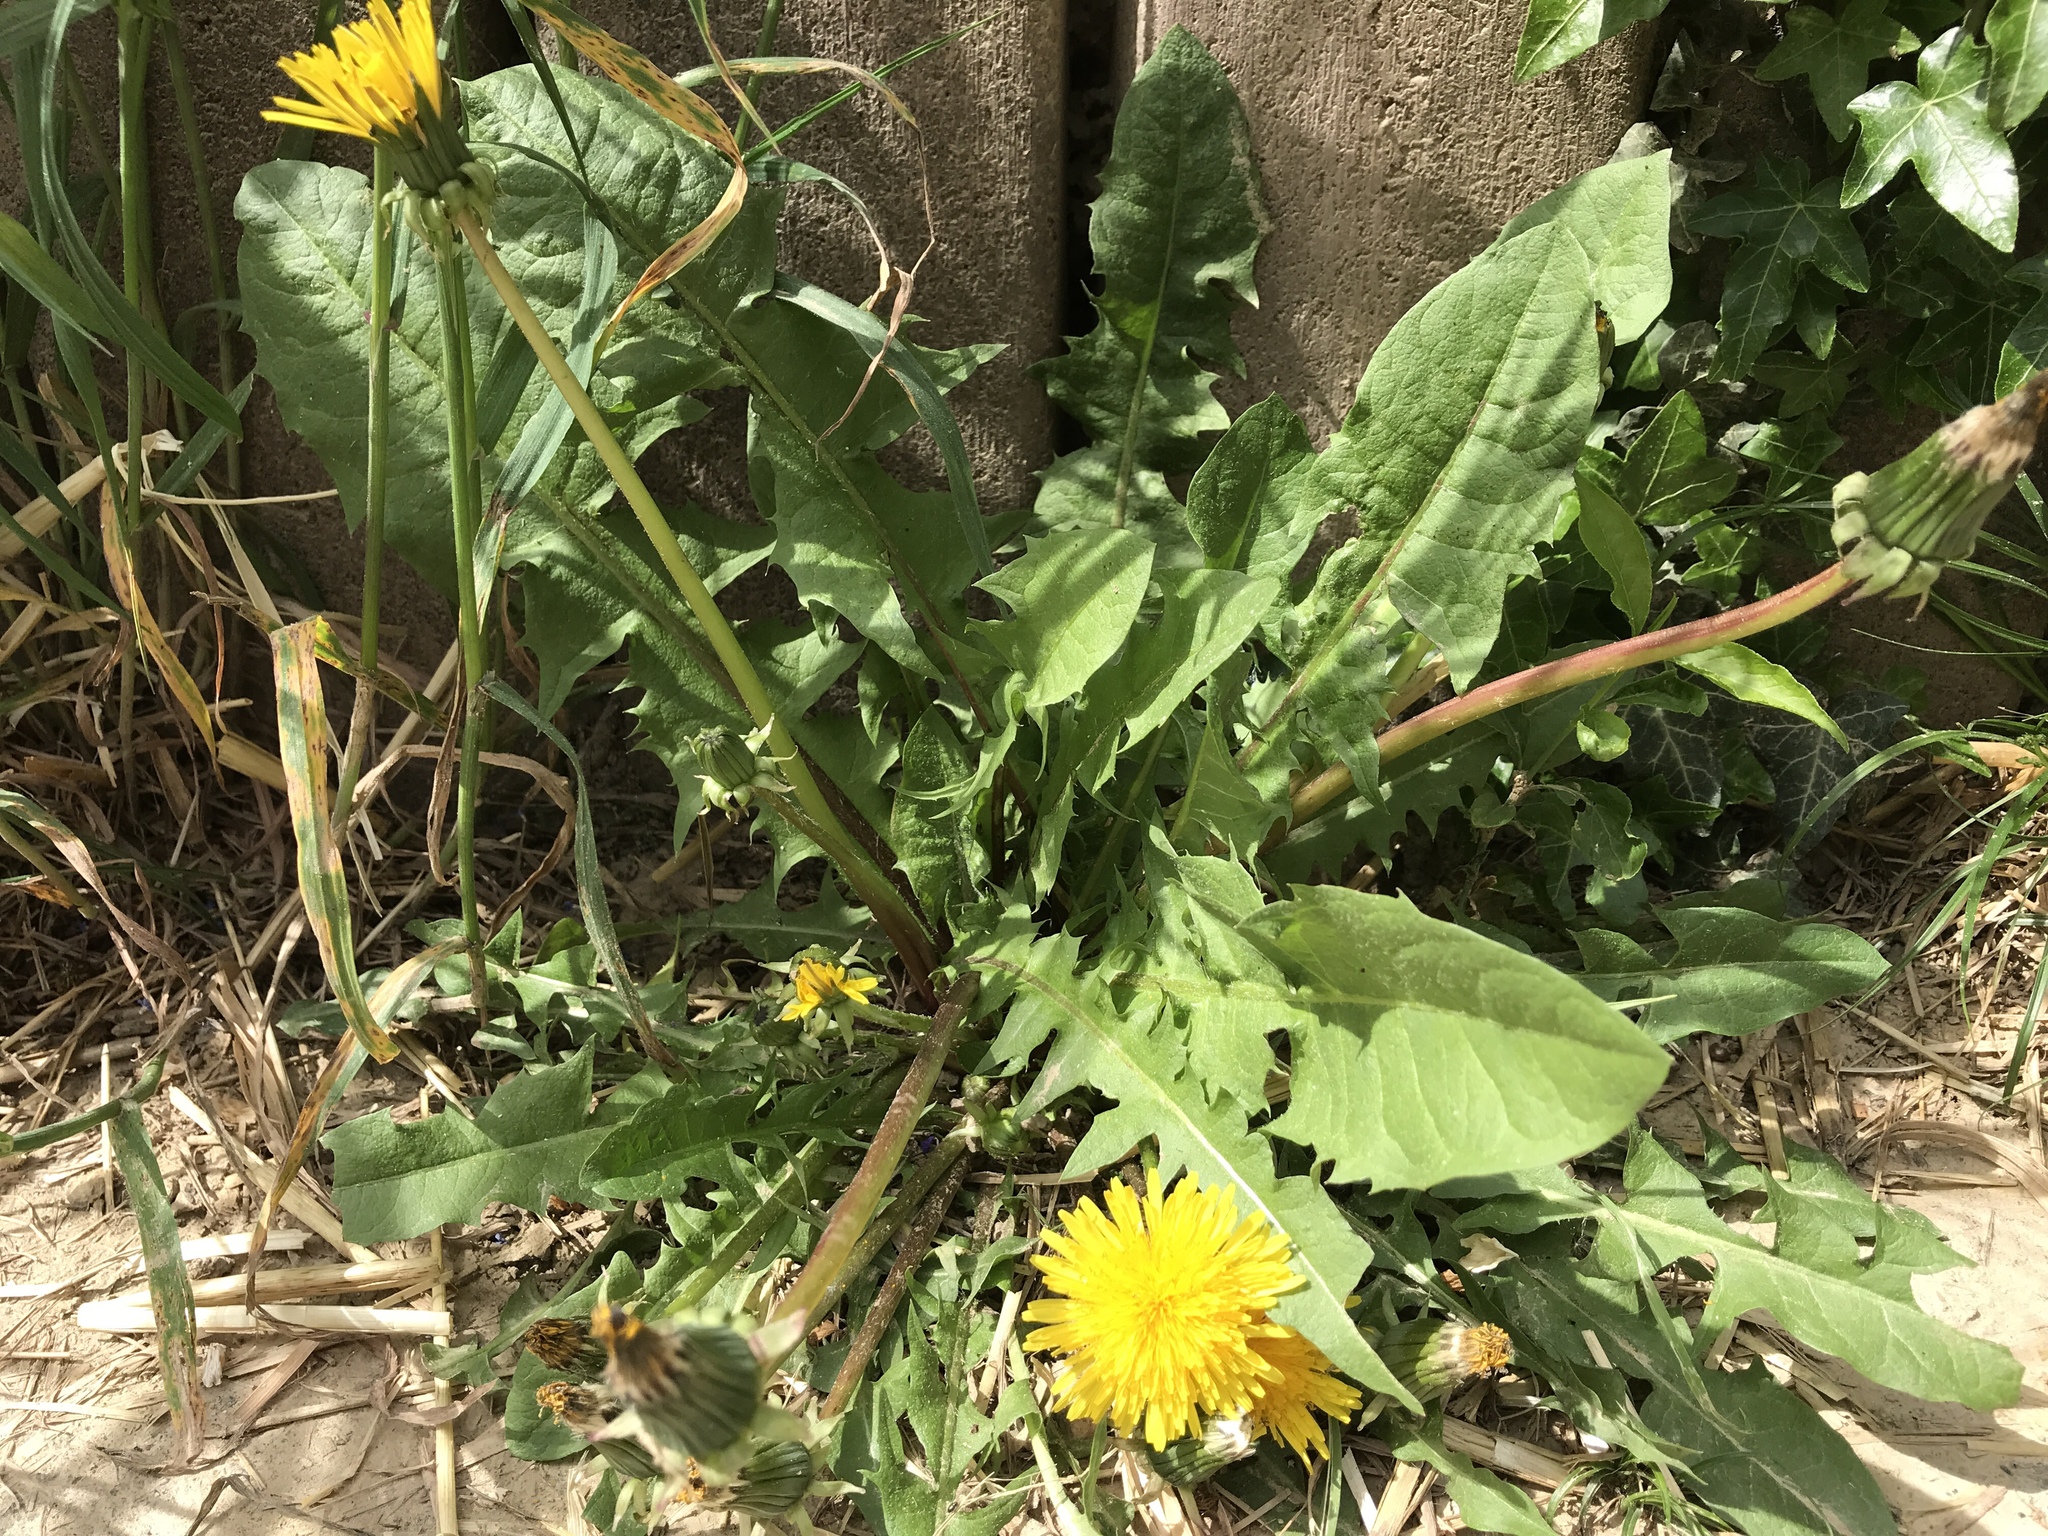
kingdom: Plantae
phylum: Tracheophyta
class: Magnoliopsida
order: Asterales
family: Asteraceae
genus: Taraxacum
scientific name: Taraxacum officinale
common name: Common dandelion
